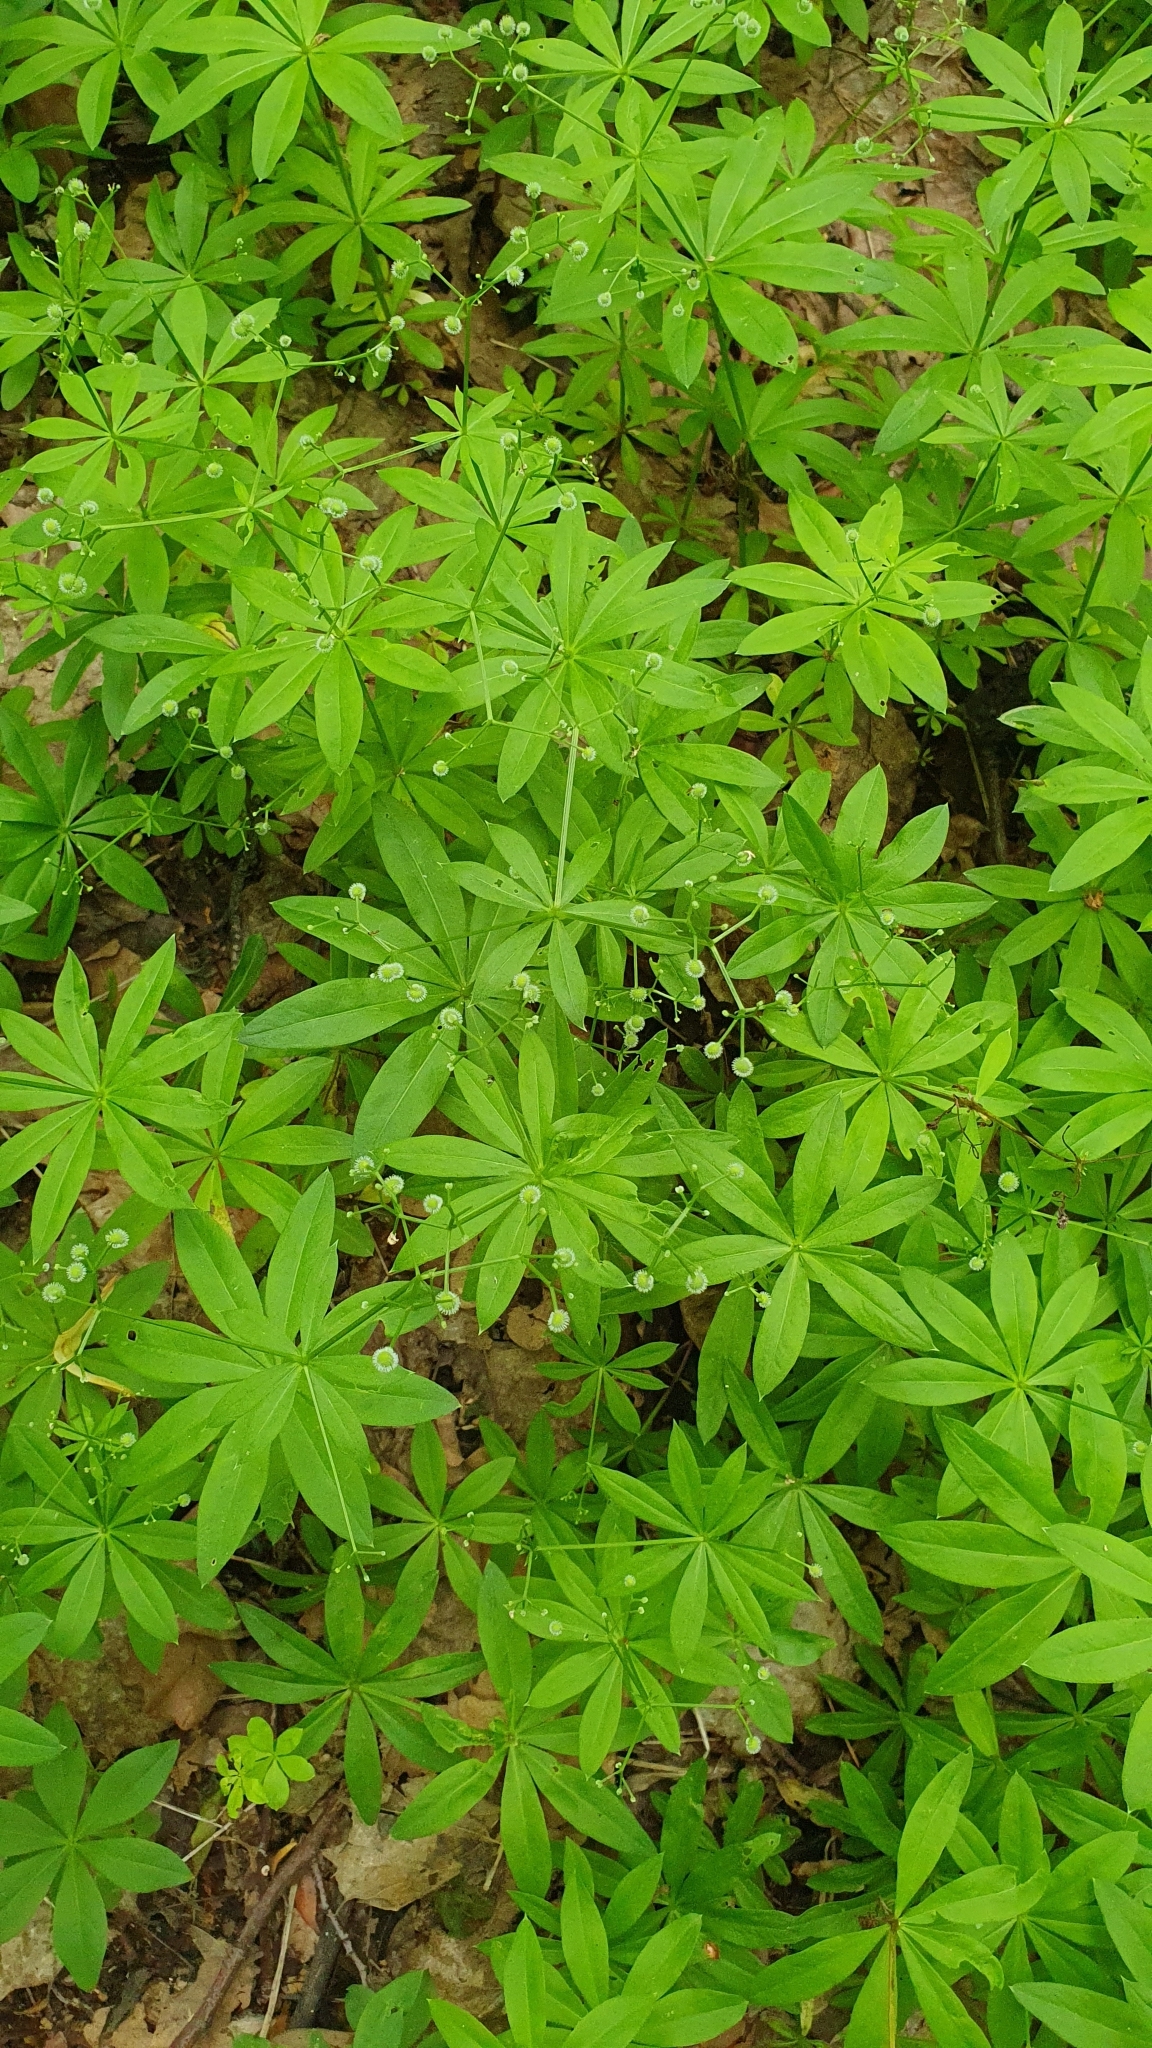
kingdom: Plantae
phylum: Tracheophyta
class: Magnoliopsida
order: Gentianales
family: Rubiaceae
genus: Galium
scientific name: Galium odoratum
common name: Sweet woodruff
